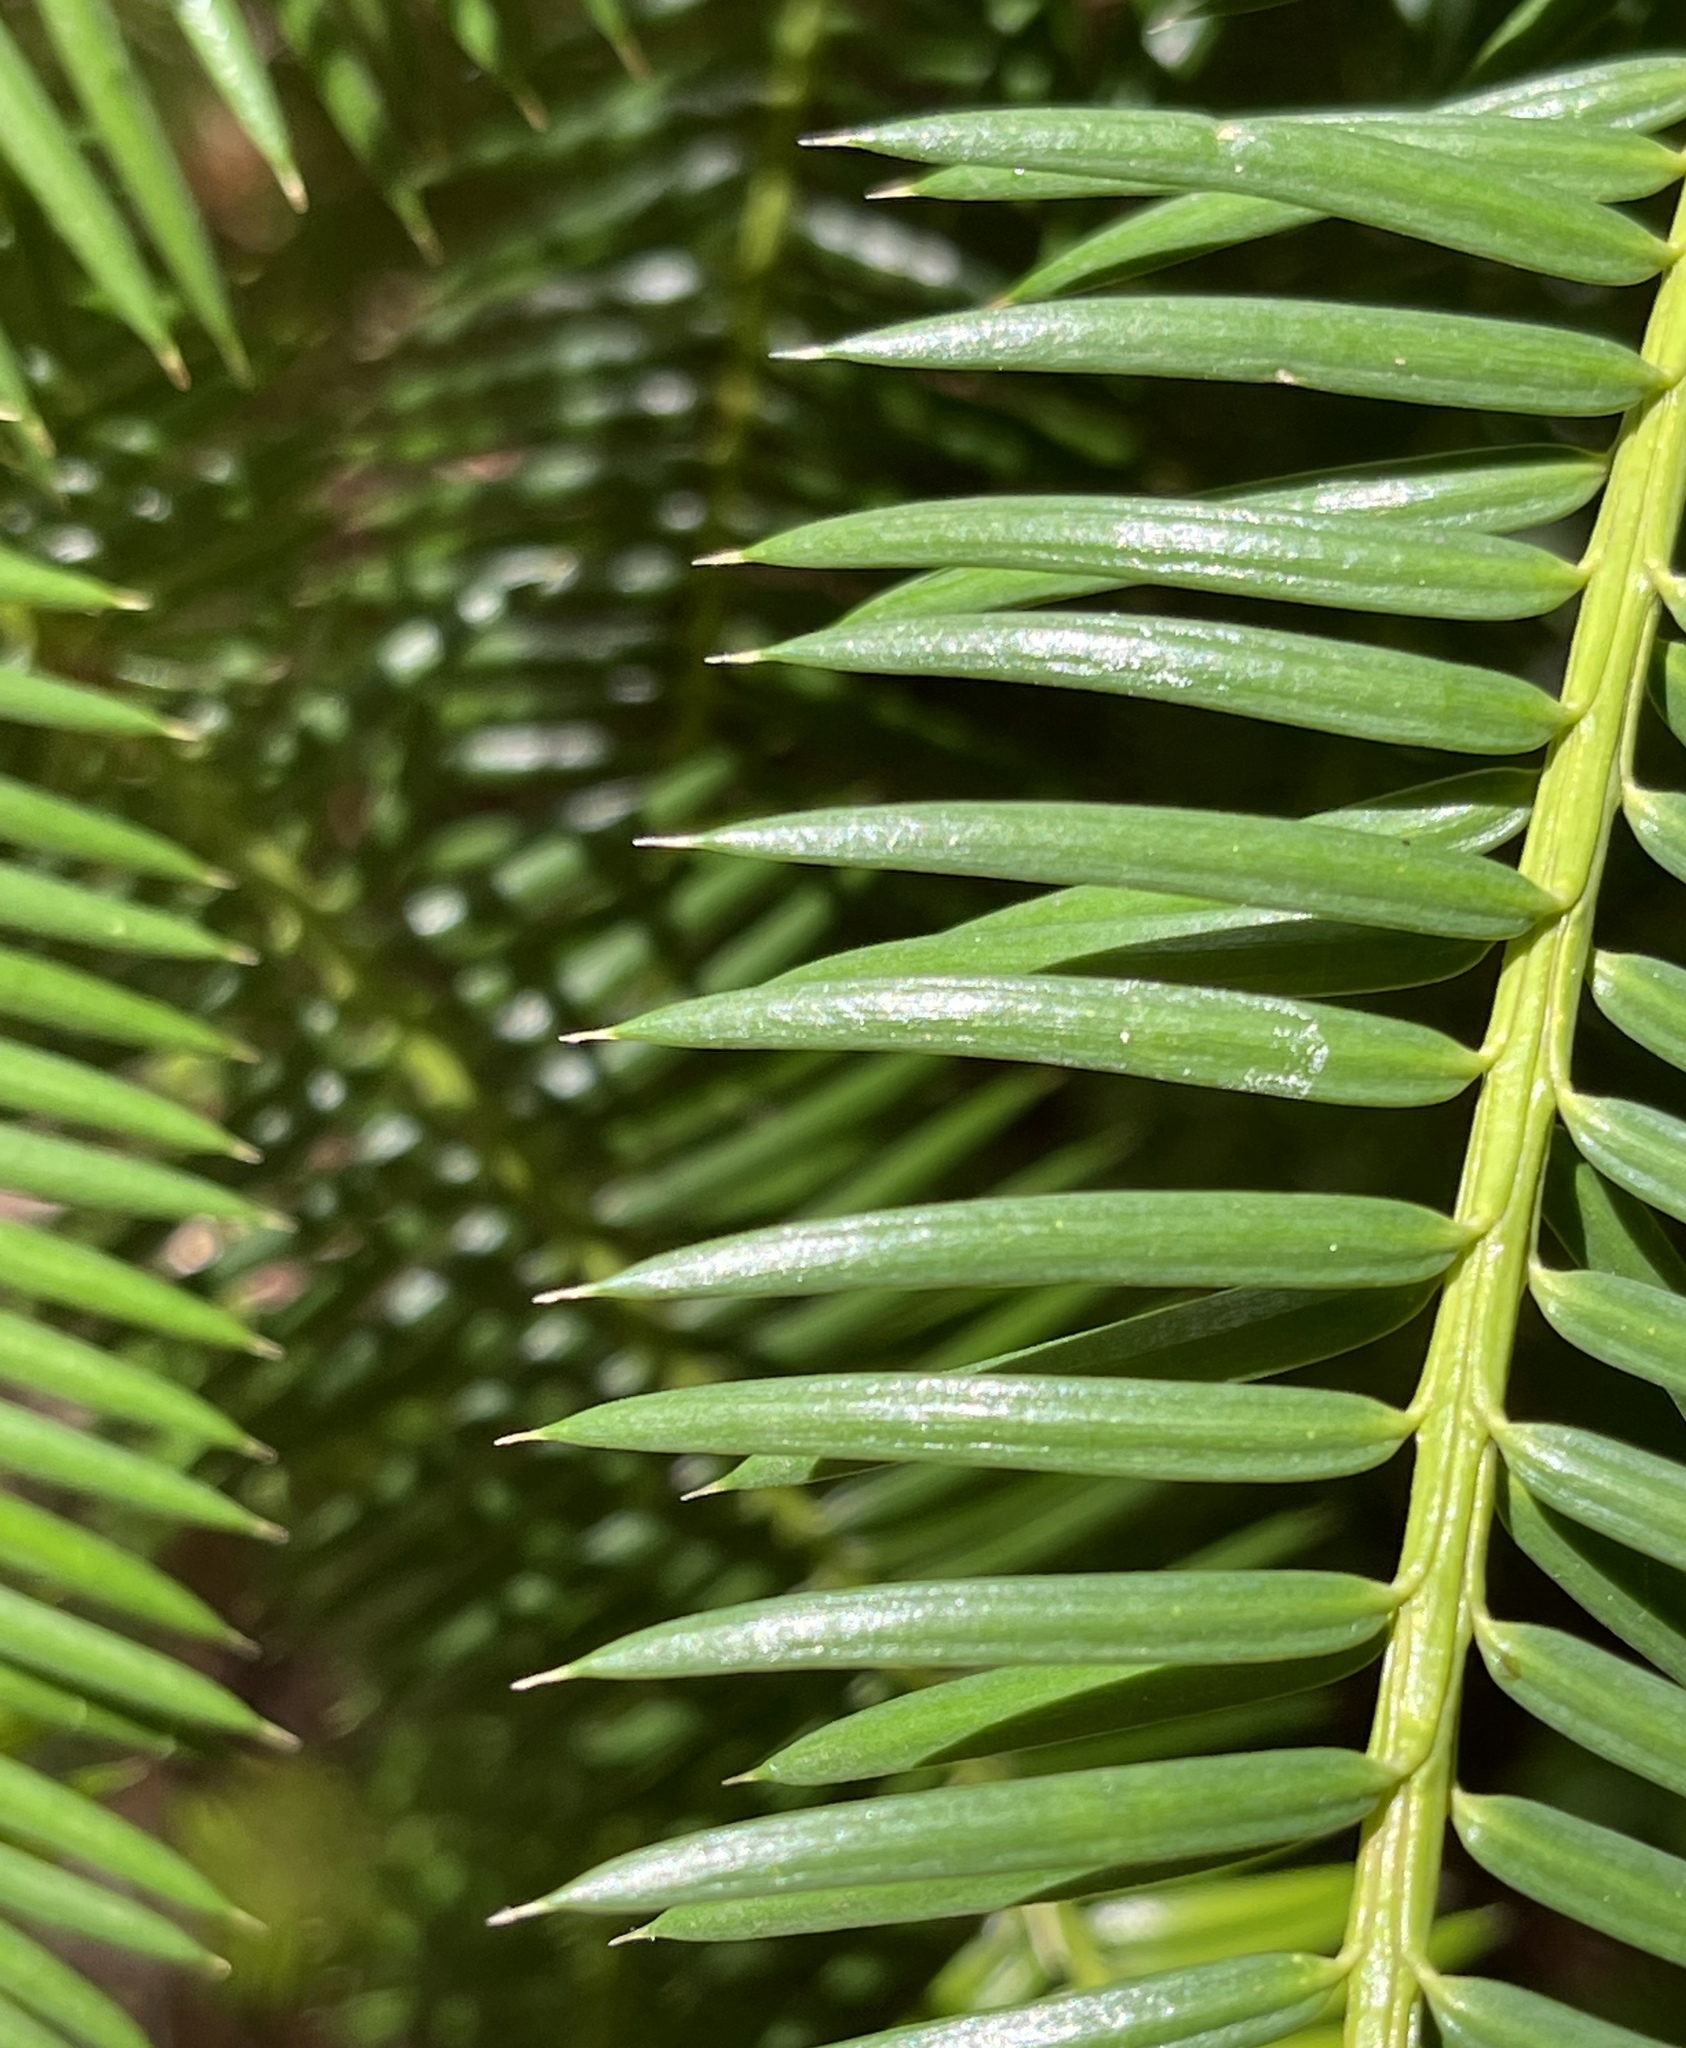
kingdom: Plantae
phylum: Tracheophyta
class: Pinopsida
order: Pinales
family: Taxaceae
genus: Torreya
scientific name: Torreya californica
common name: California torreya
